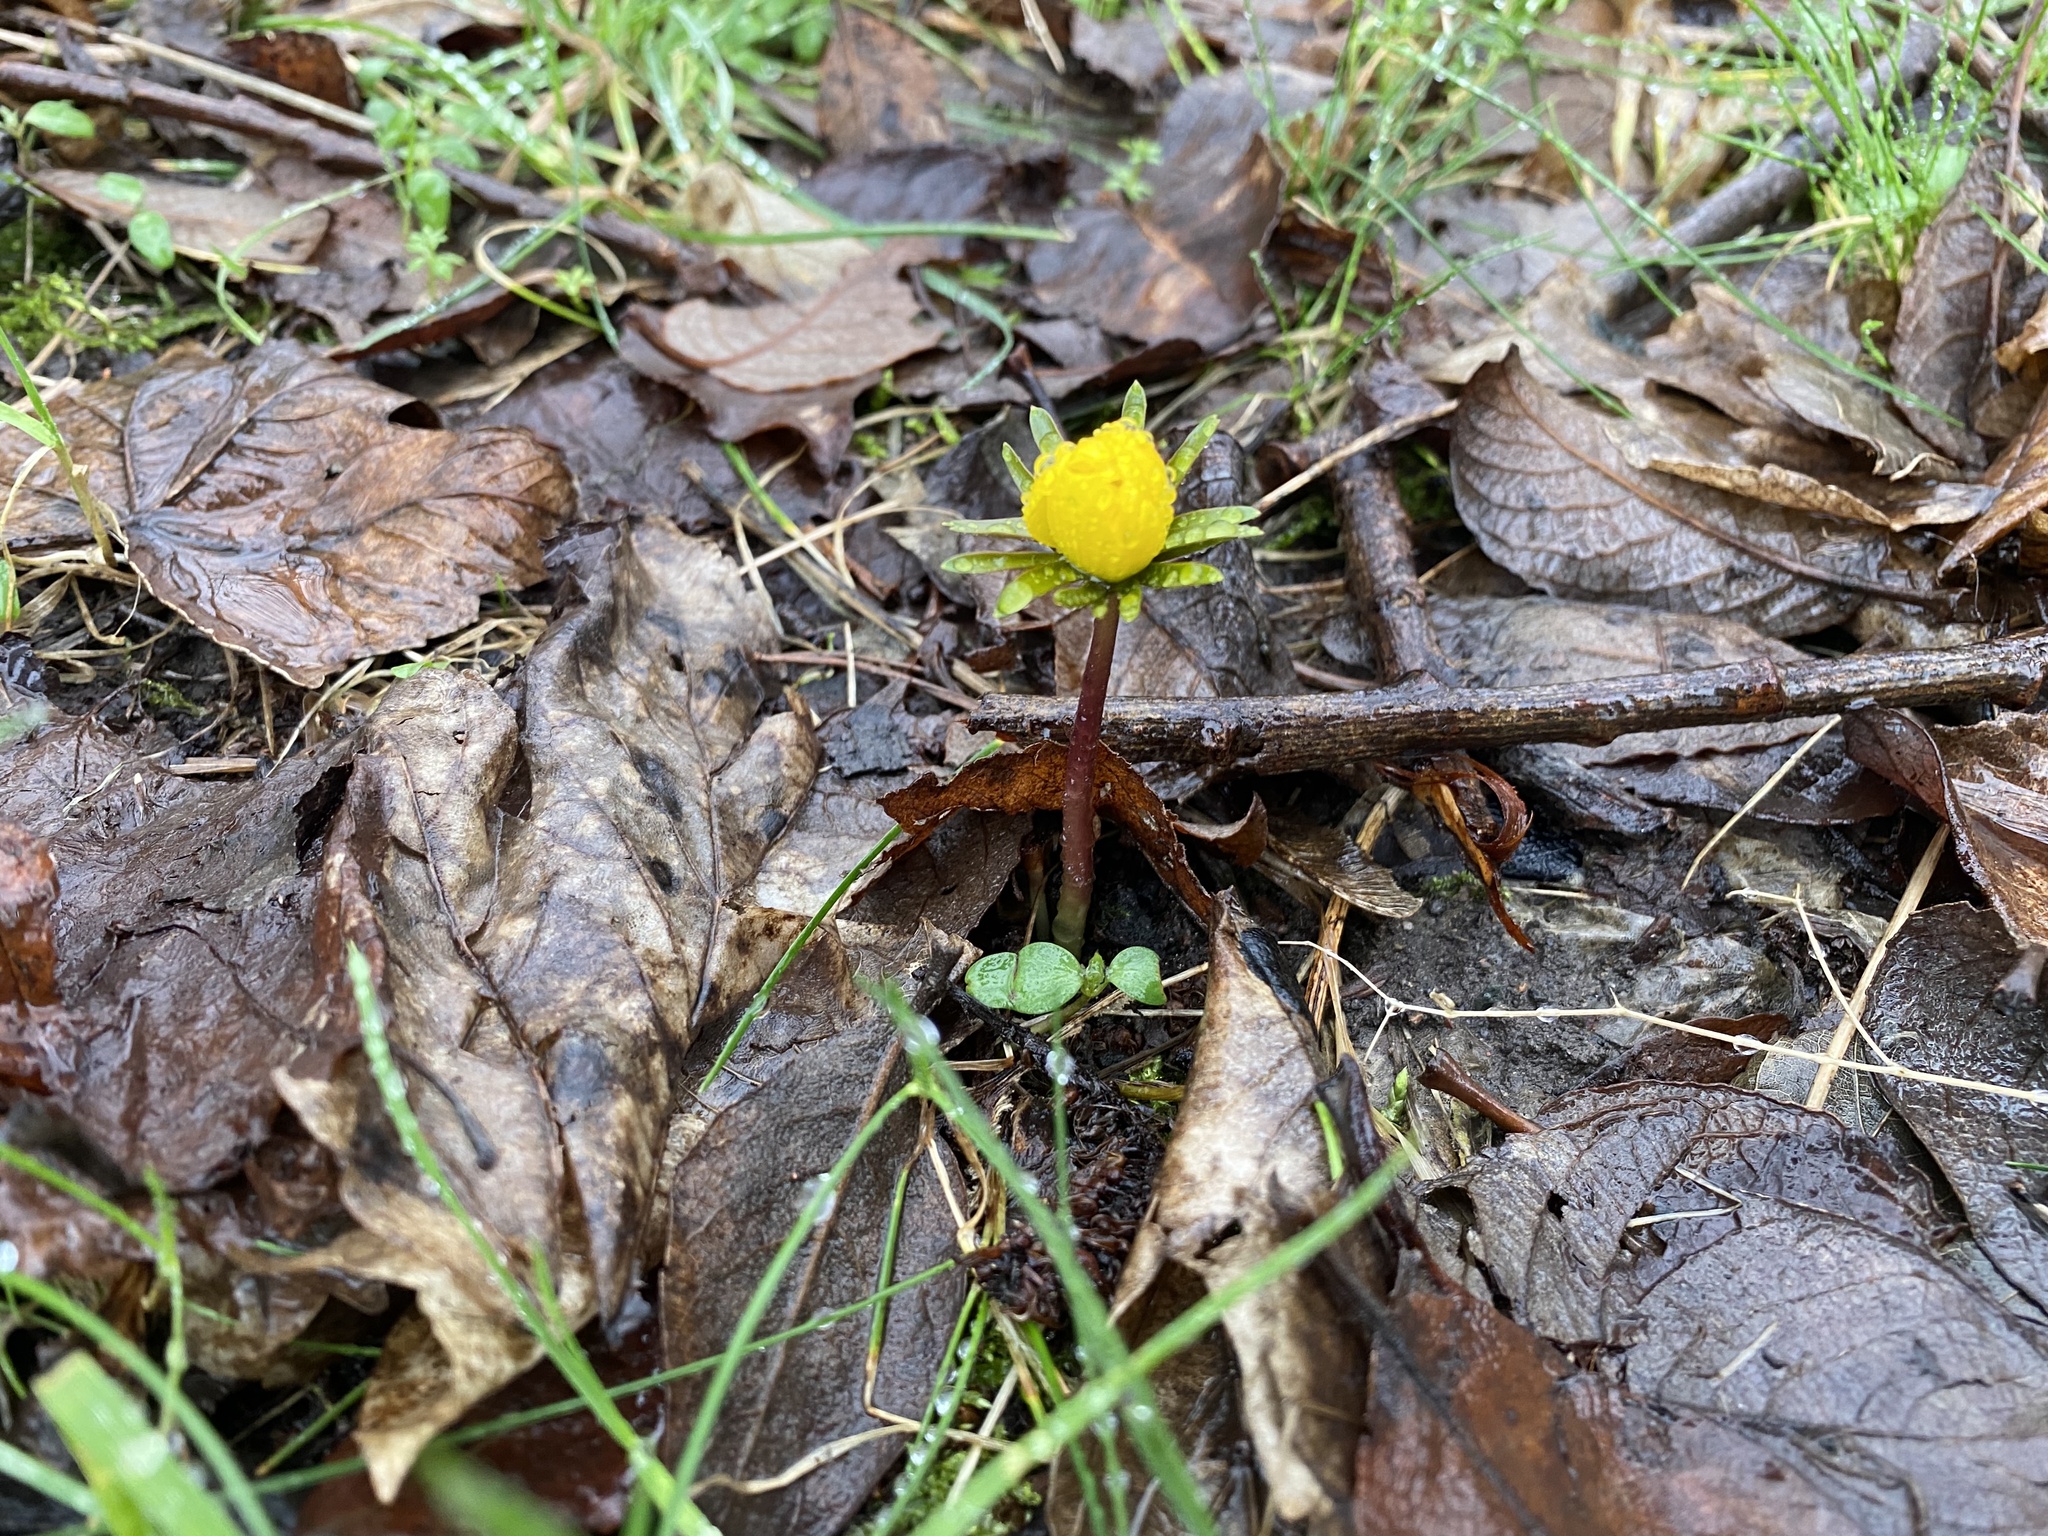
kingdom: Plantae
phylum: Tracheophyta
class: Magnoliopsida
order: Ranunculales
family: Ranunculaceae
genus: Eranthis
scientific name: Eranthis hyemalis
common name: Winter aconite
